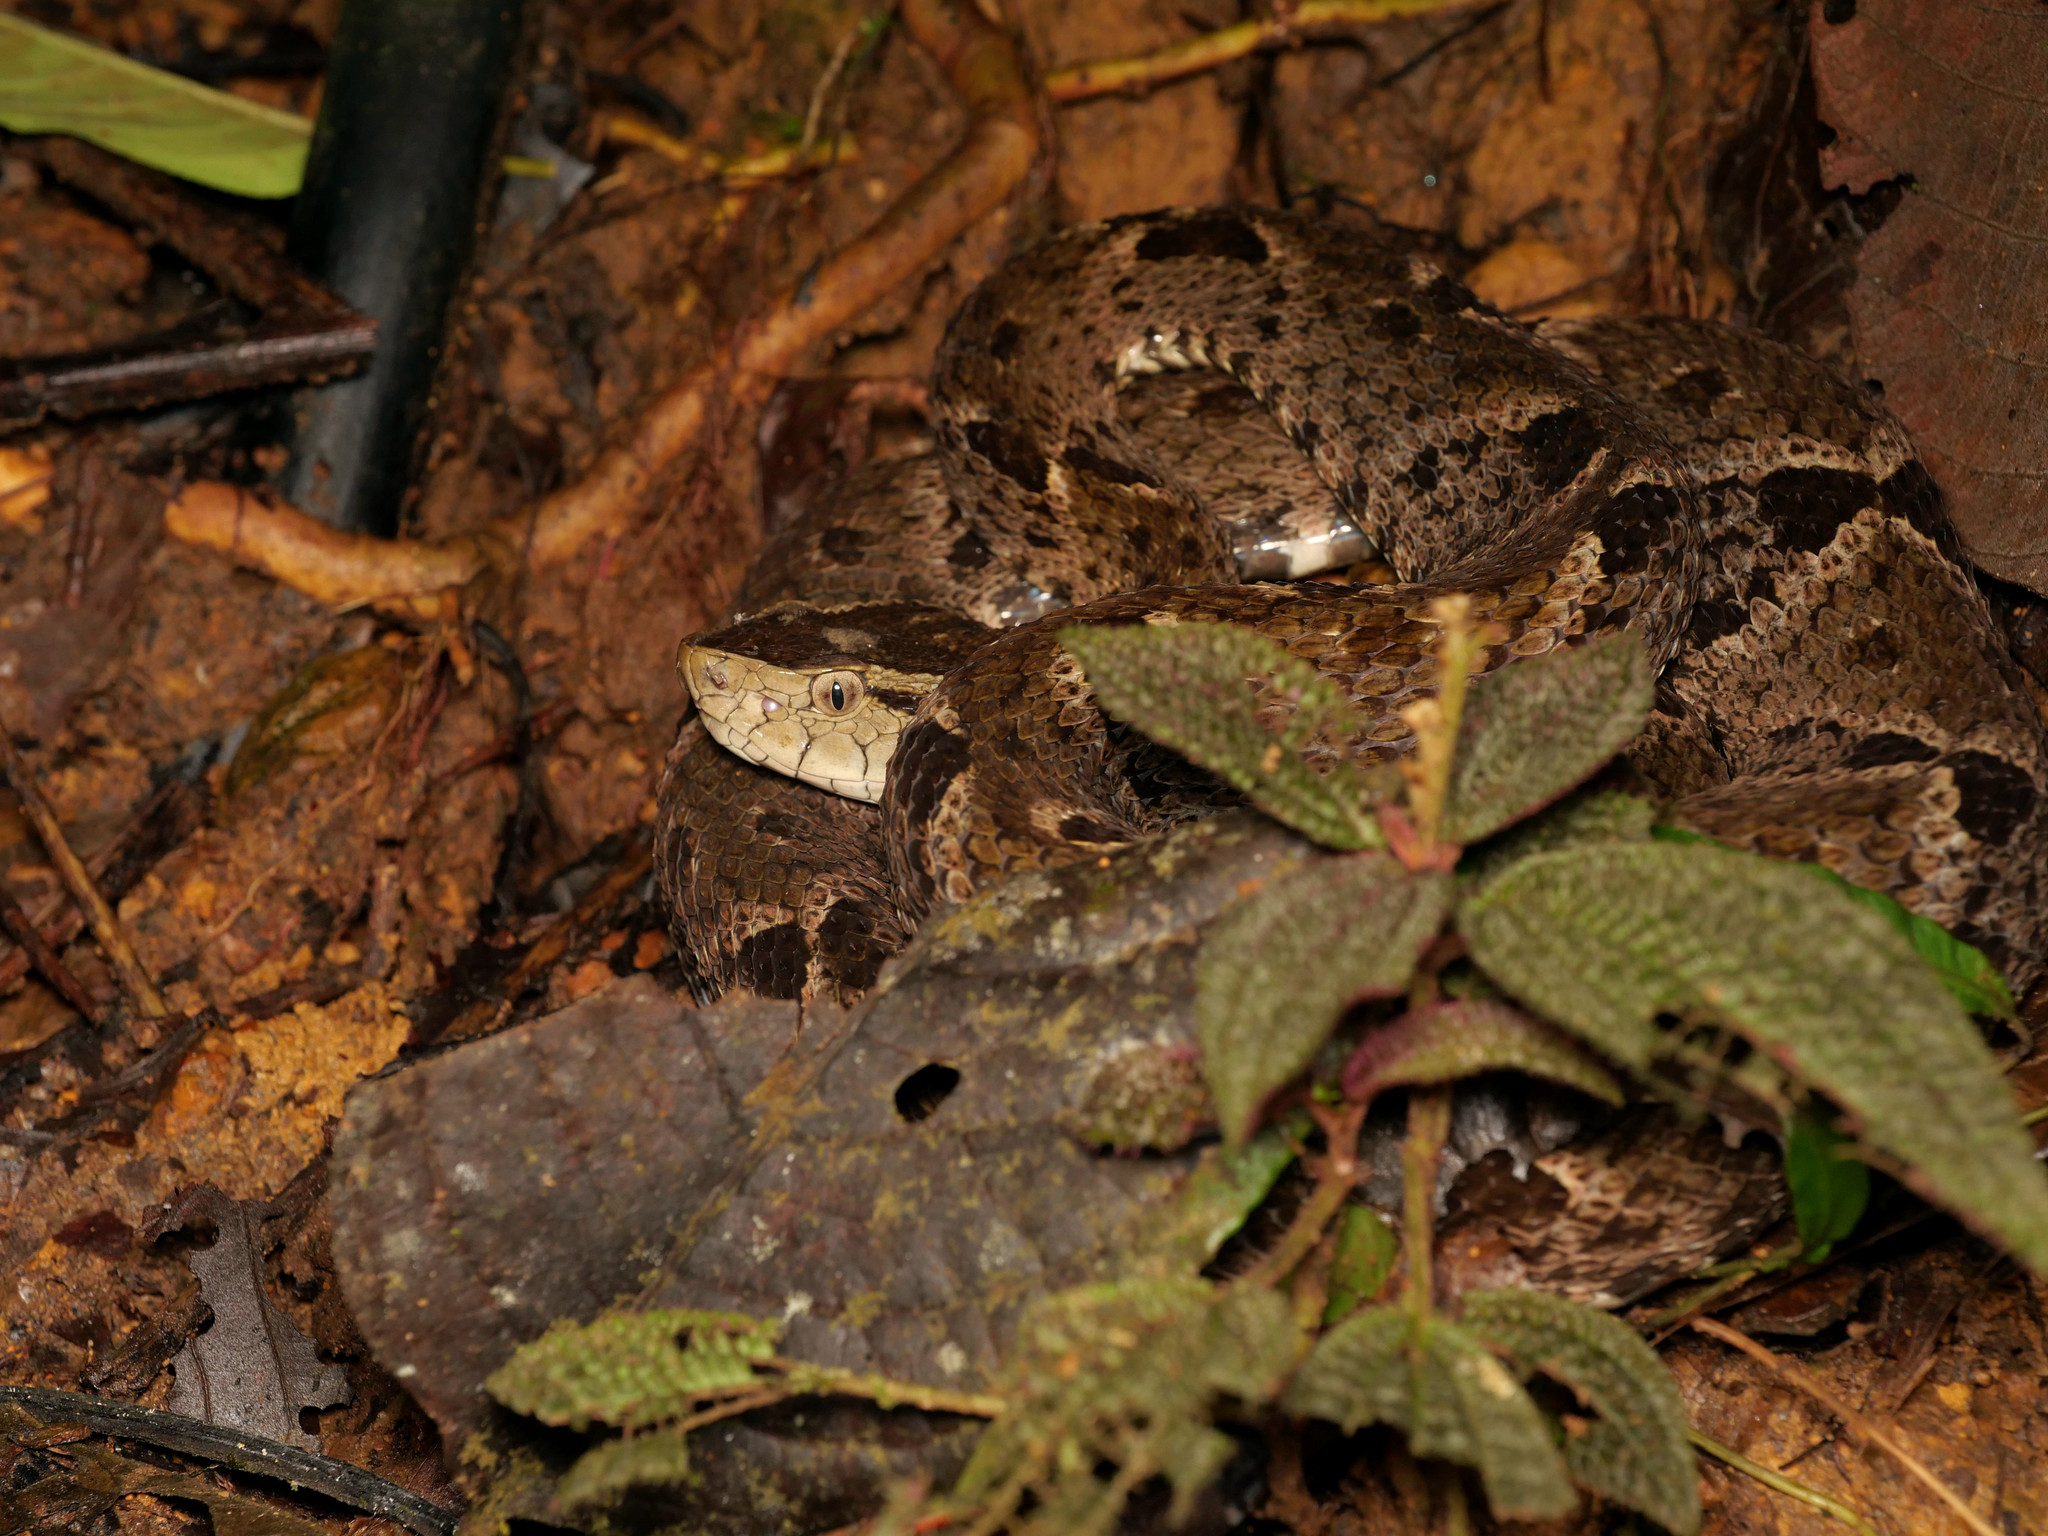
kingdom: Animalia
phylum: Chordata
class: Squamata
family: Viperidae
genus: Bothrops
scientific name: Bothrops asper
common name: Terciopelo
